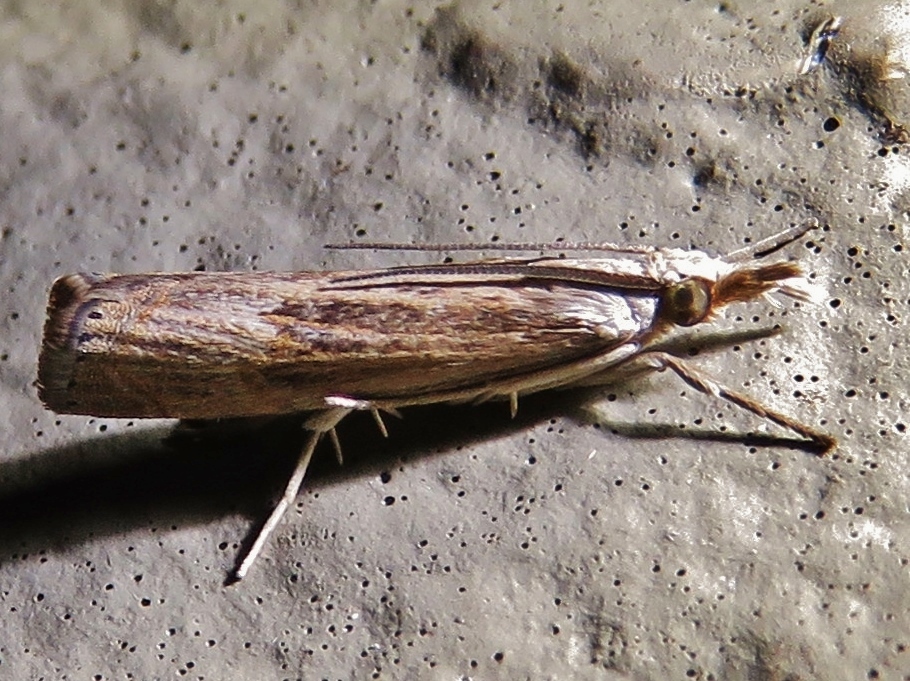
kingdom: Animalia
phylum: Arthropoda
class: Insecta
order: Lepidoptera
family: Crambidae
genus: Parapediasia
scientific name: Parapediasia teterellus
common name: Bluegrass webworm moth
